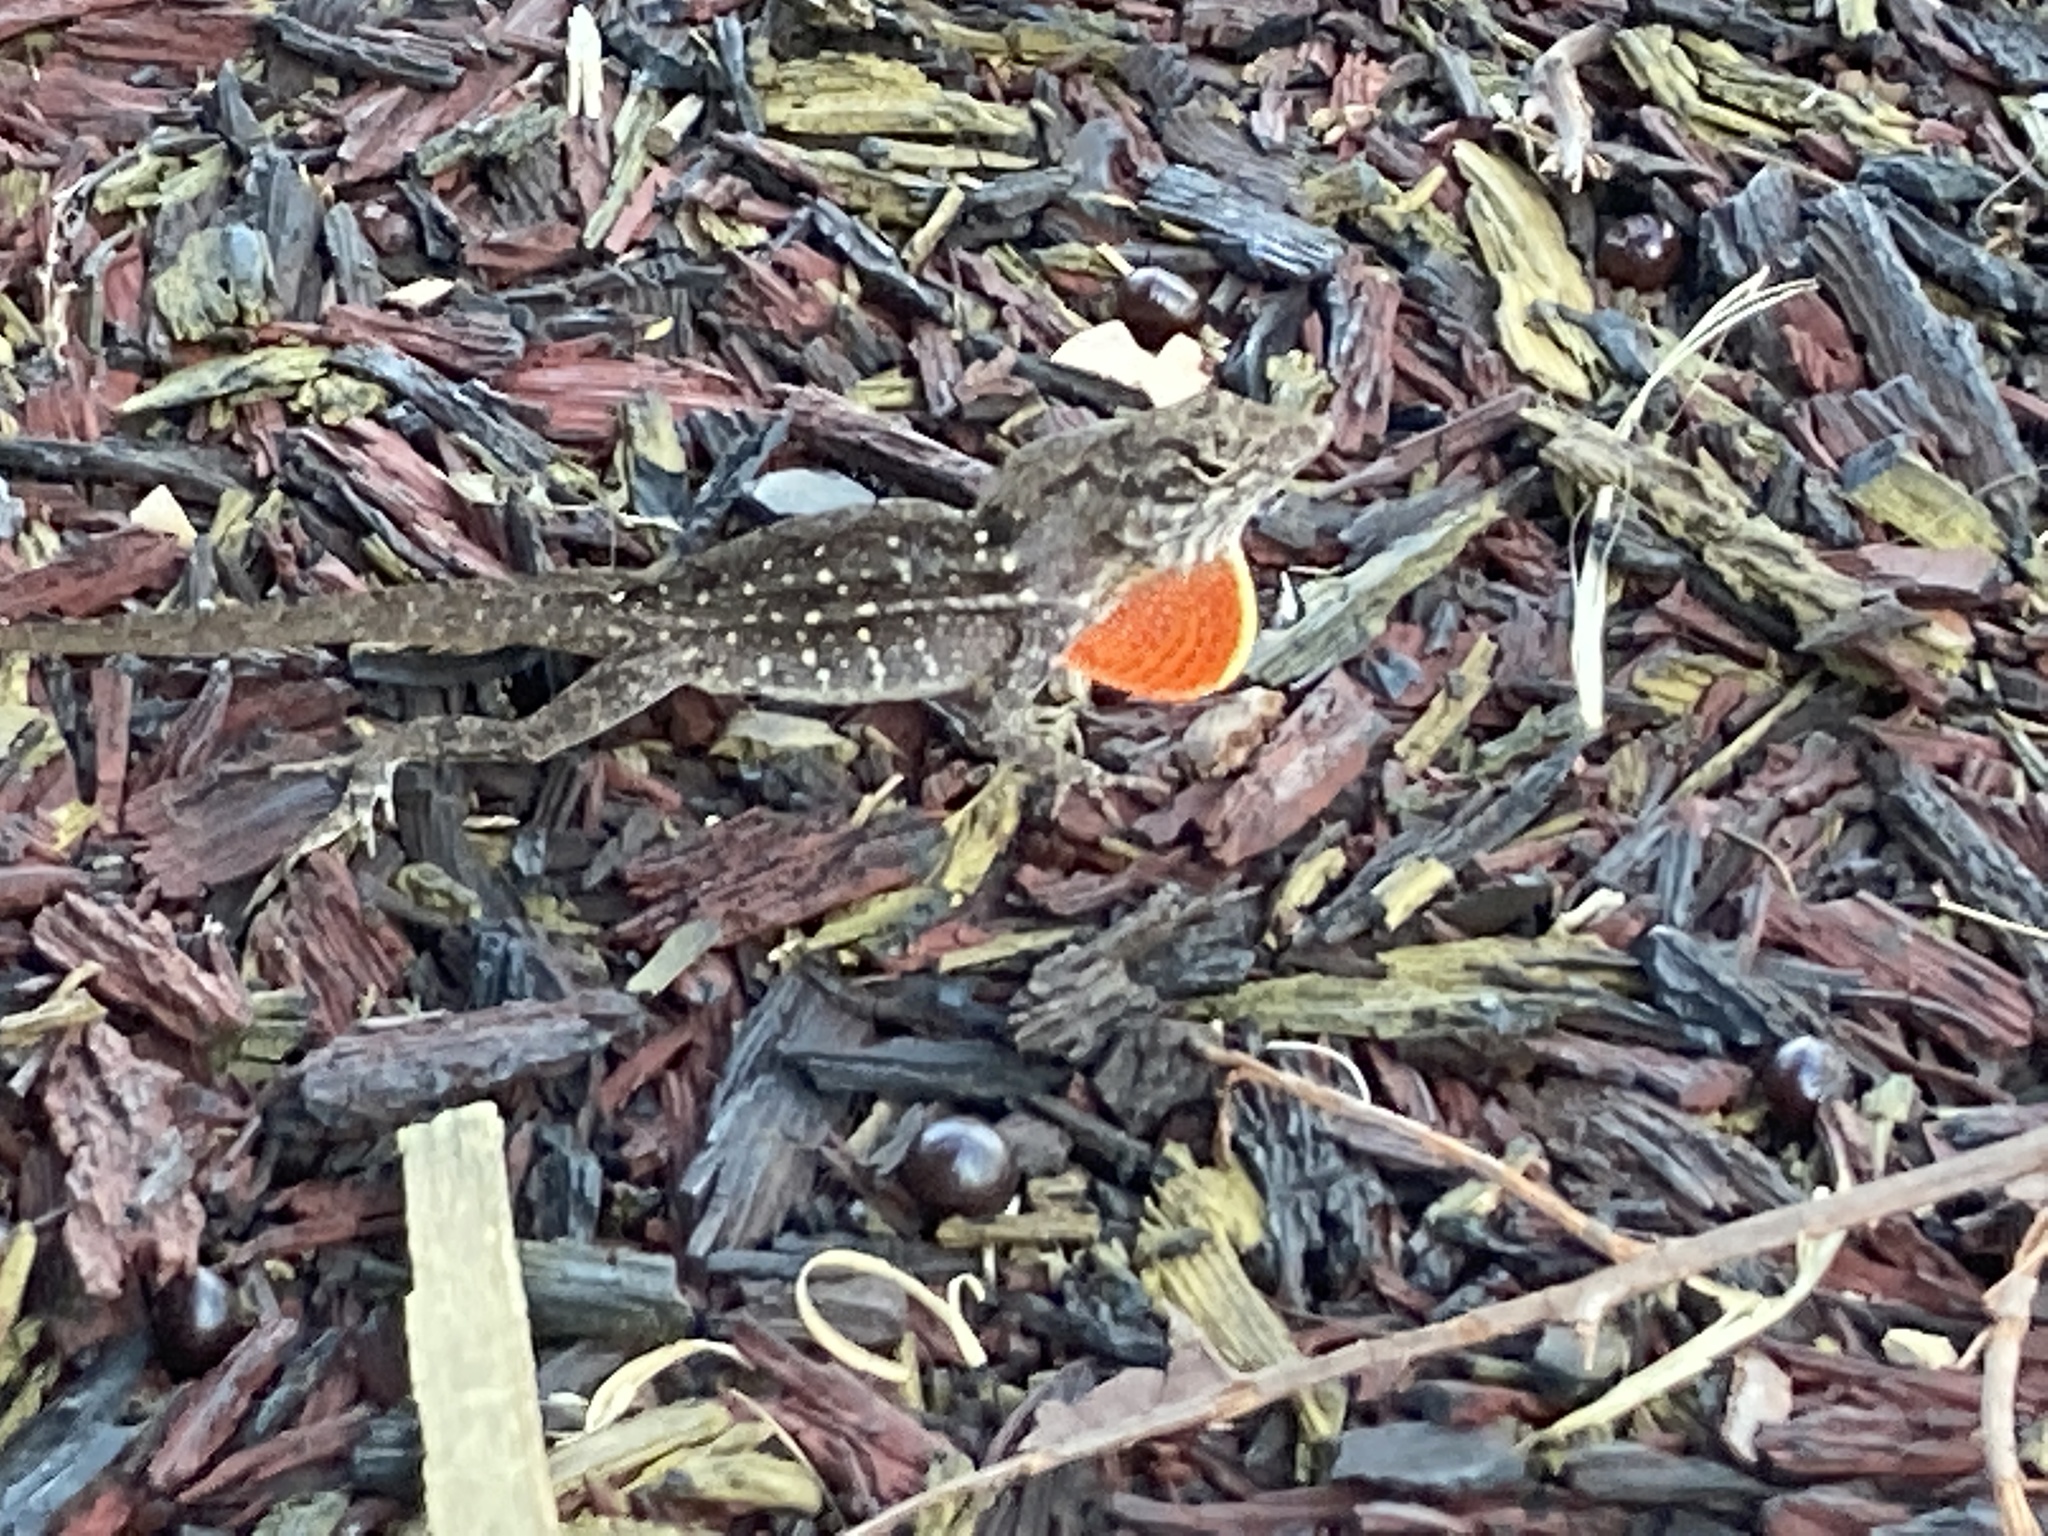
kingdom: Animalia
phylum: Chordata
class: Squamata
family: Dactyloidae
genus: Anolis
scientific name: Anolis sagrei
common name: Brown anole
